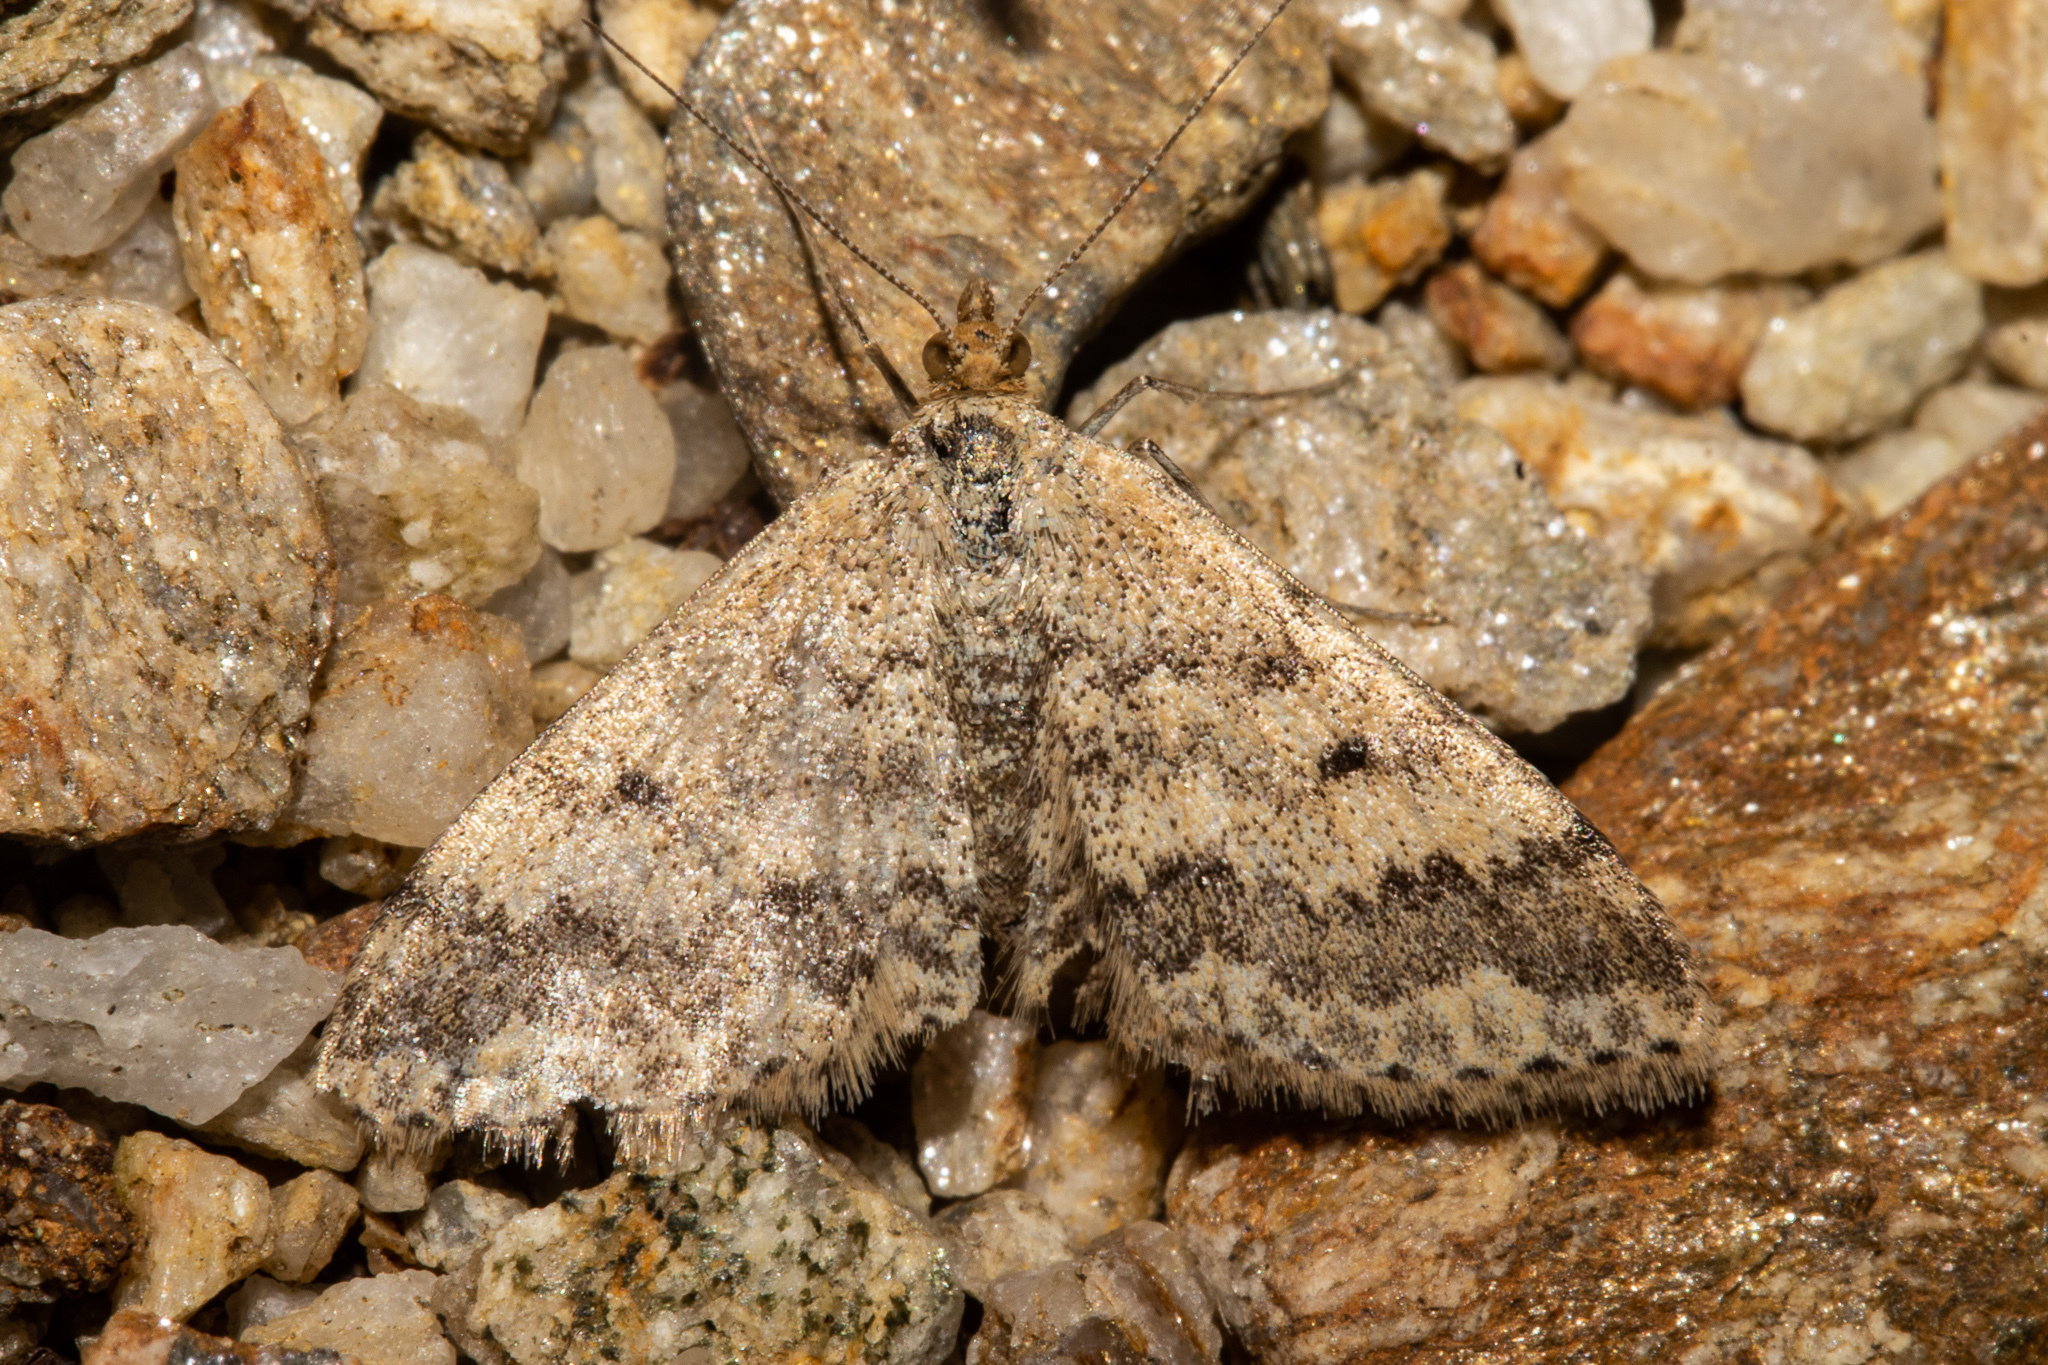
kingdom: Animalia
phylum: Arthropoda
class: Insecta
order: Lepidoptera
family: Geometridae
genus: Scopula
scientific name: Scopula rubraria
